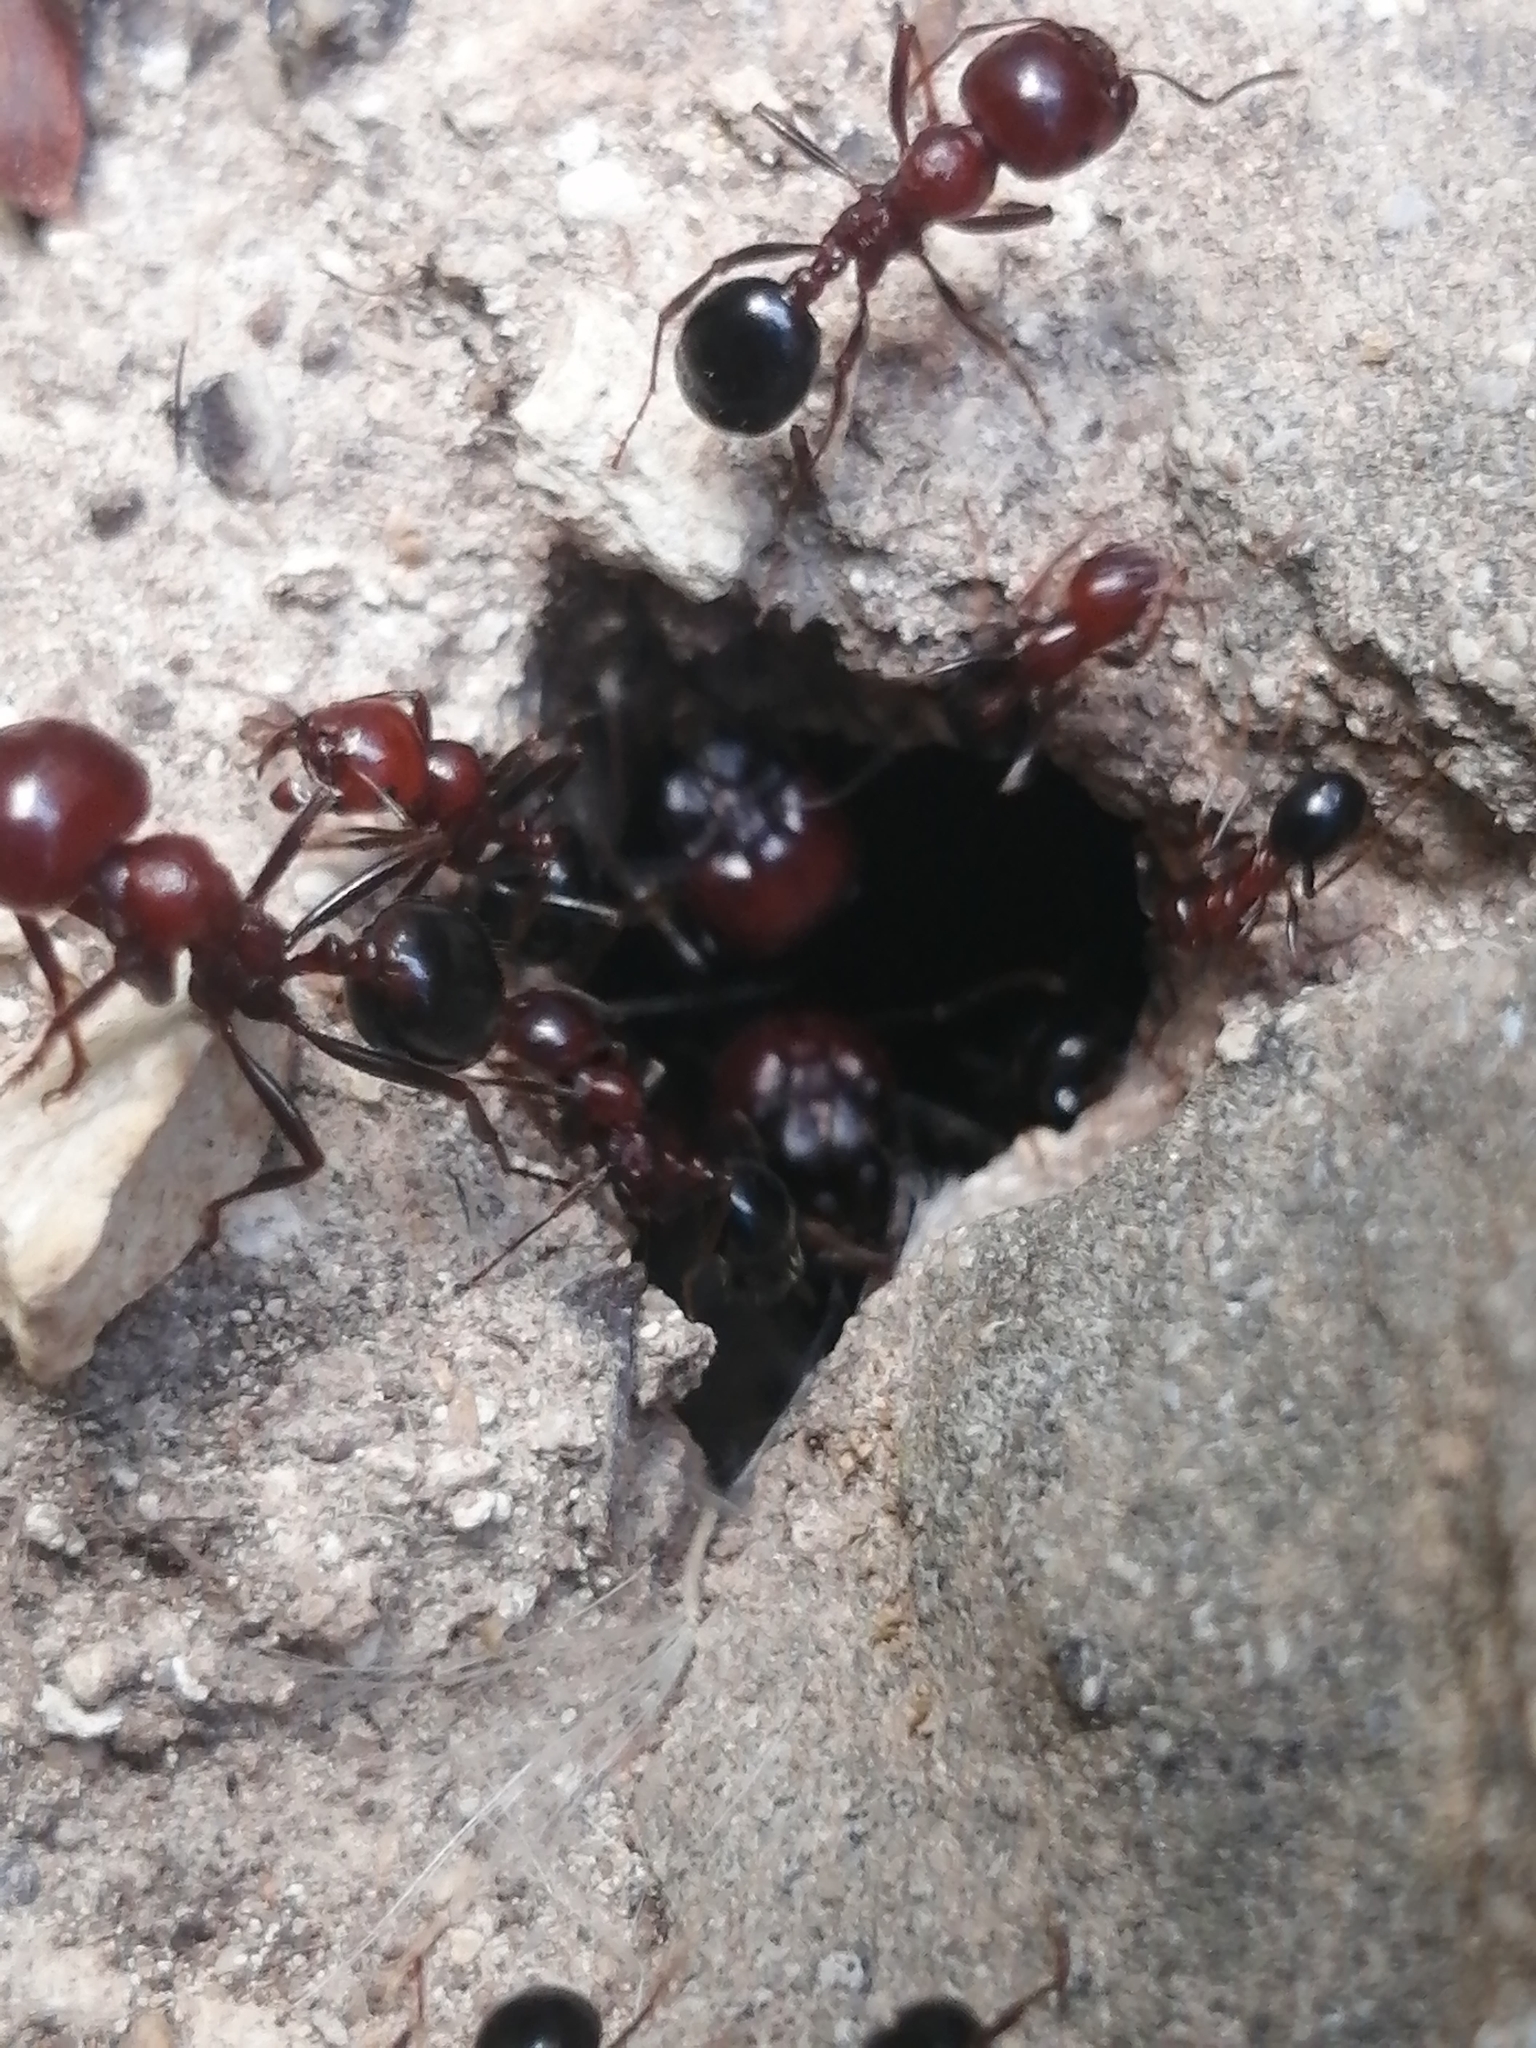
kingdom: Animalia
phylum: Arthropoda
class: Insecta
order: Hymenoptera
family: Formicidae
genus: Messor
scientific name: Messor hebraeus
